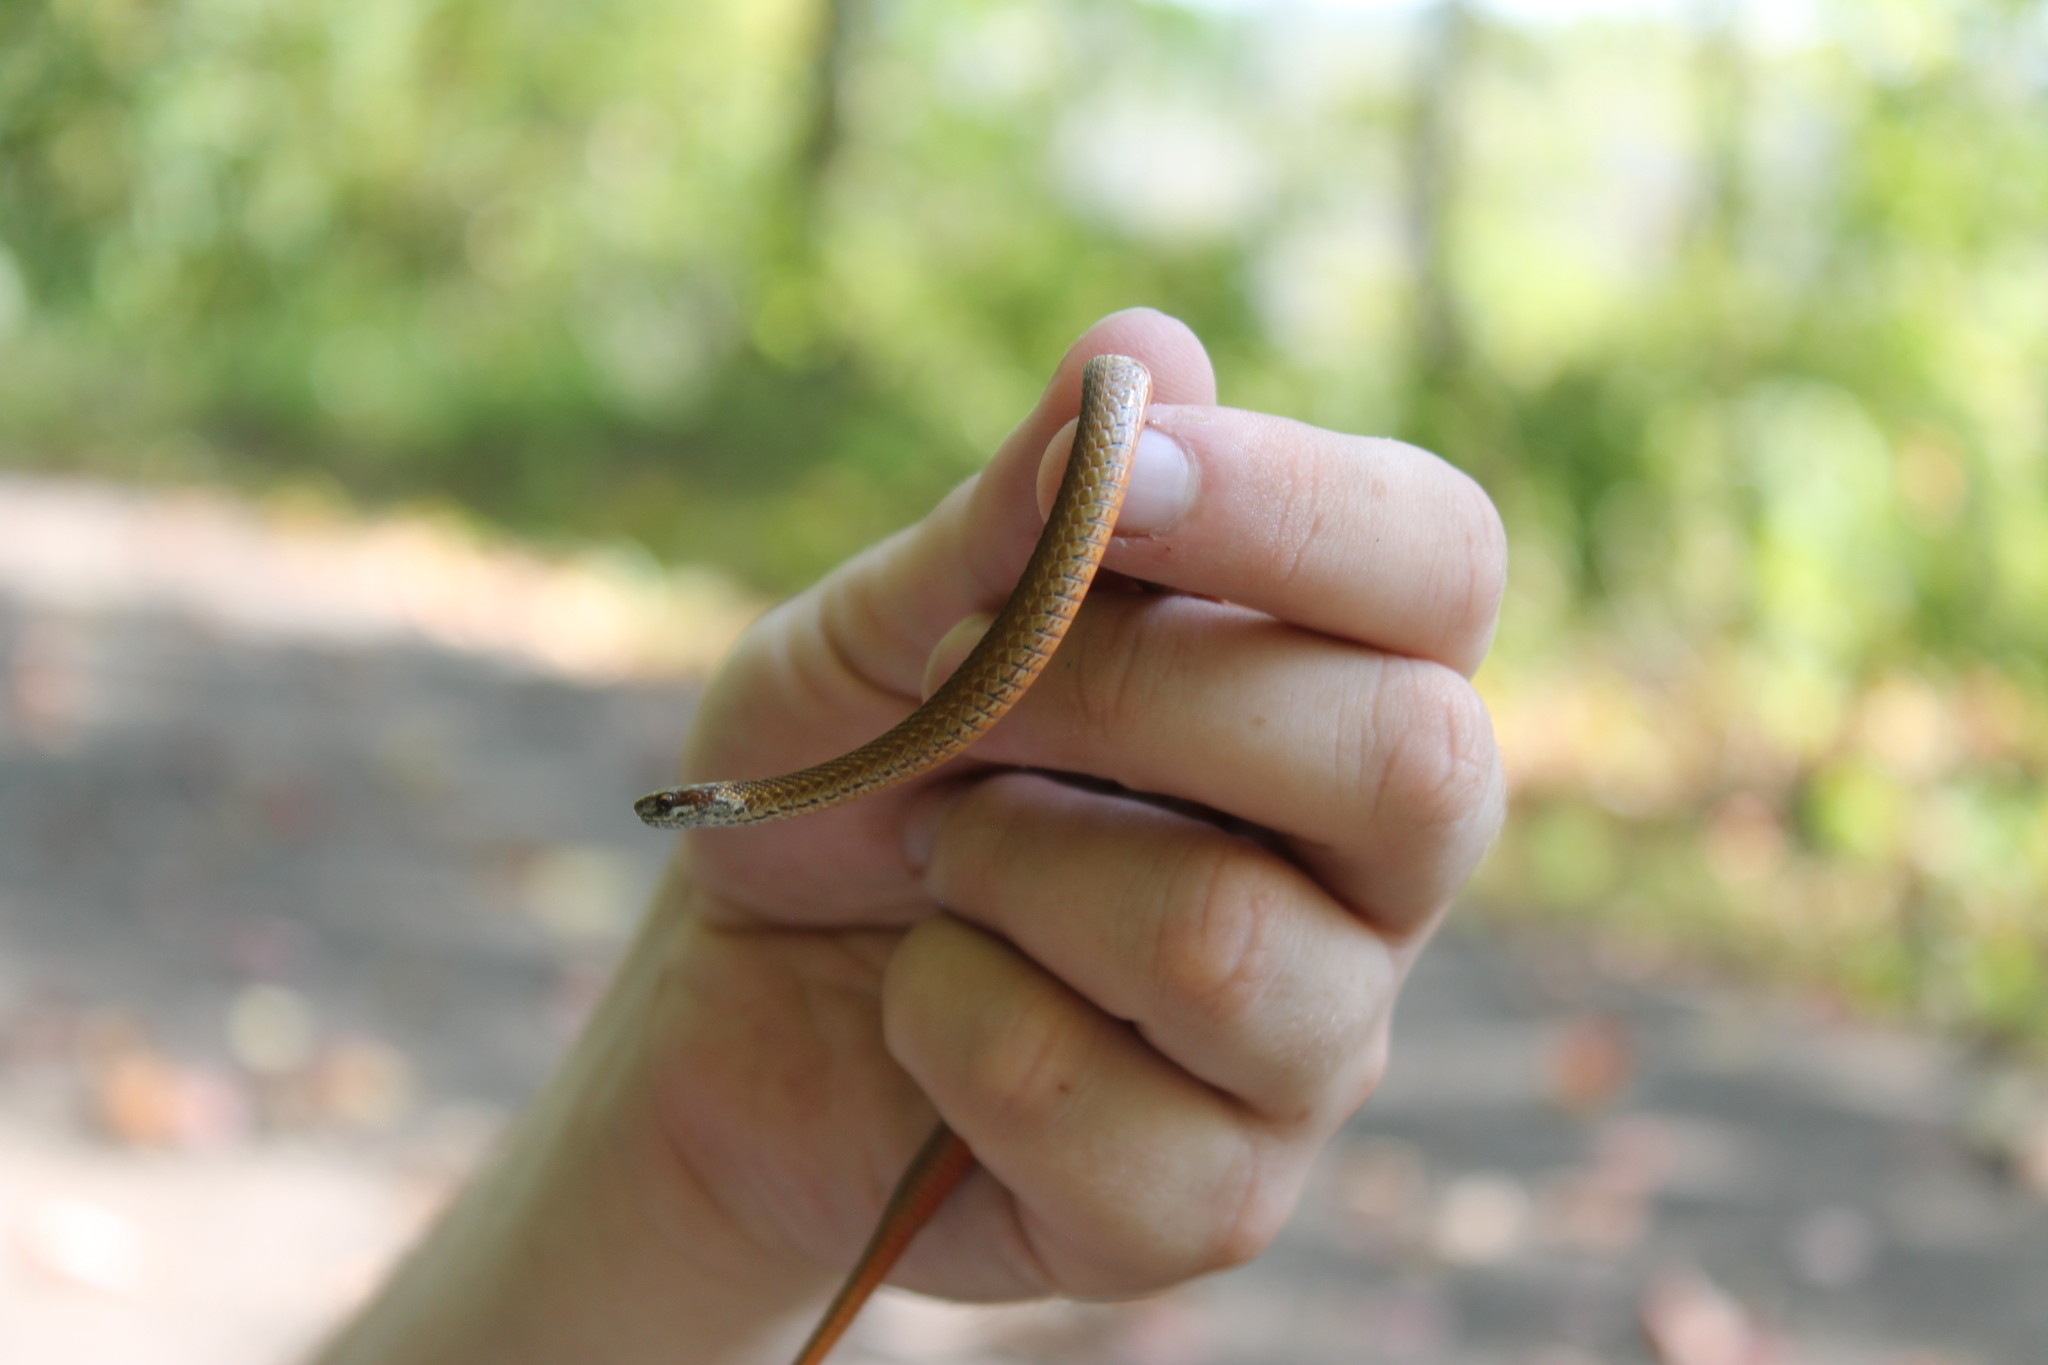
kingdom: Animalia
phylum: Chordata
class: Squamata
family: Colubridae
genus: Storeria
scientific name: Storeria occipitomaculata
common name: Redbelly snake
